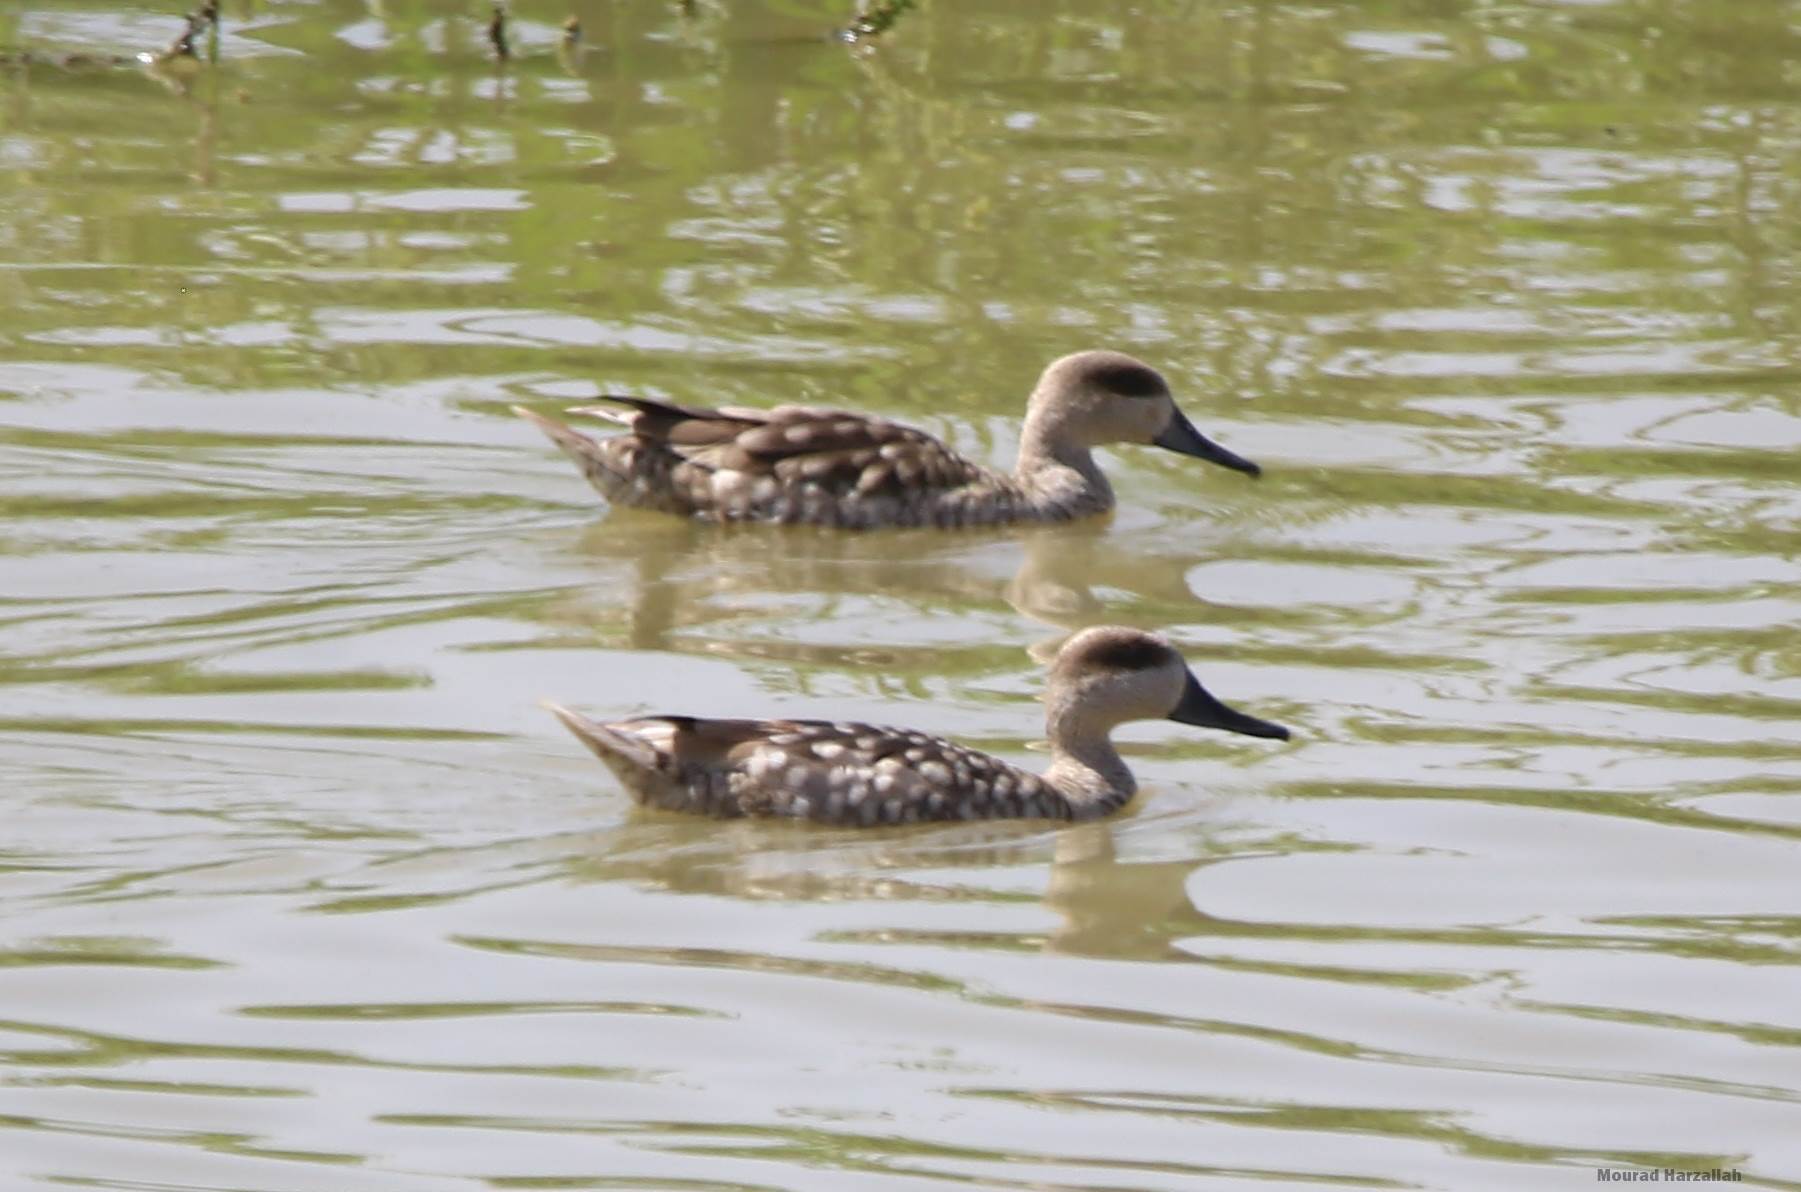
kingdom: Animalia
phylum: Chordata
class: Aves
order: Anseriformes
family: Anatidae
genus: Marmaronetta
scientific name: Marmaronetta angustirostris
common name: Marbled duck
